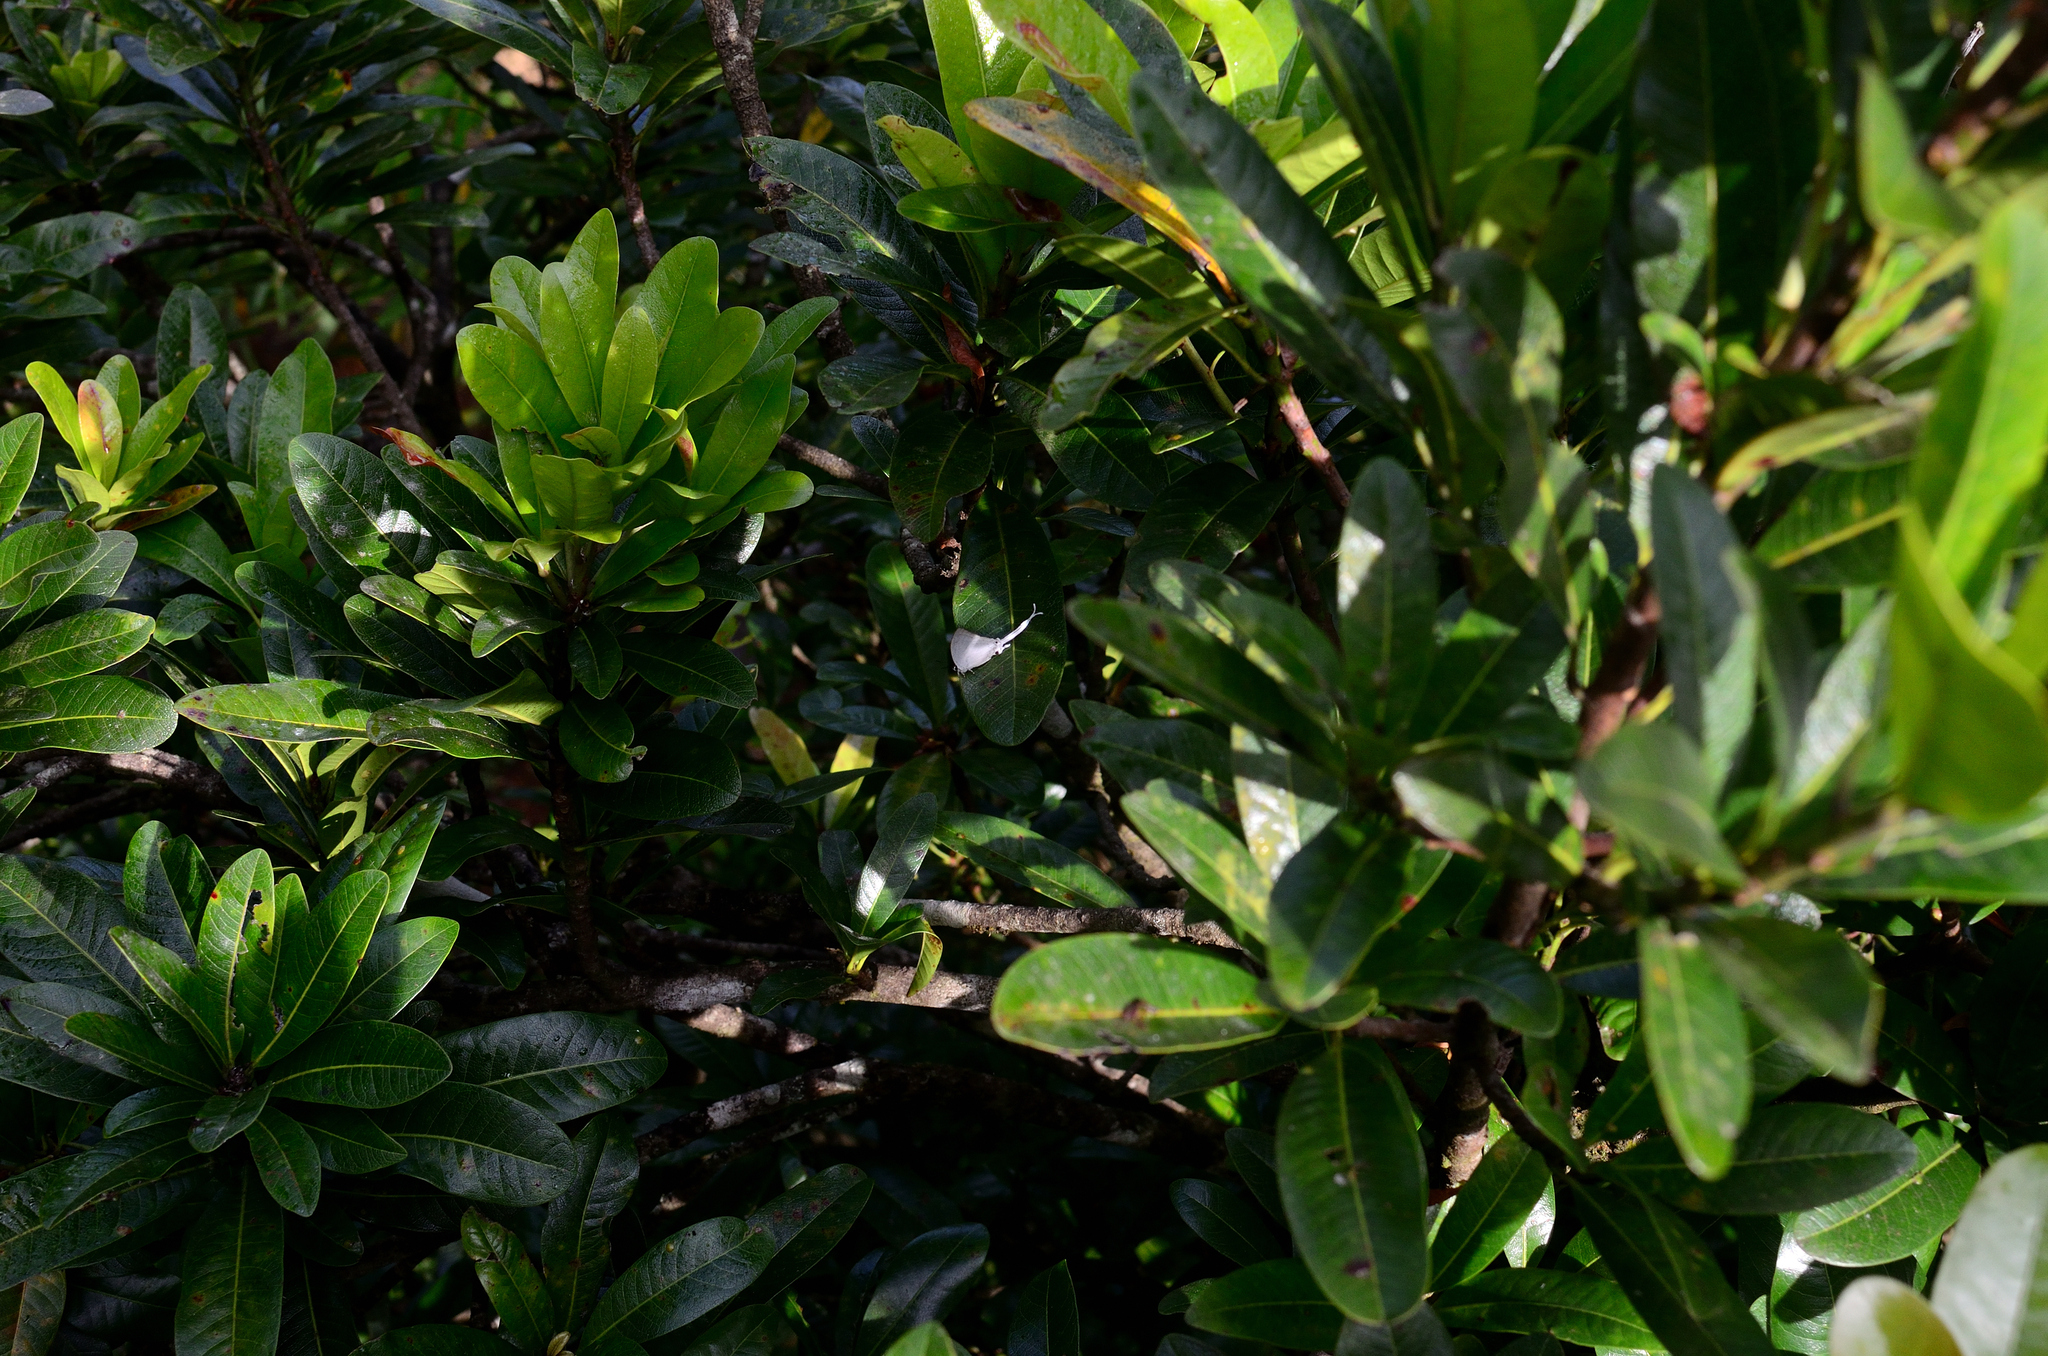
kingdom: Animalia
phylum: Arthropoda
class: Insecta
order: Lepidoptera
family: Lycaenidae
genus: Cheritra
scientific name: Cheritra freja
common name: Common imperial
